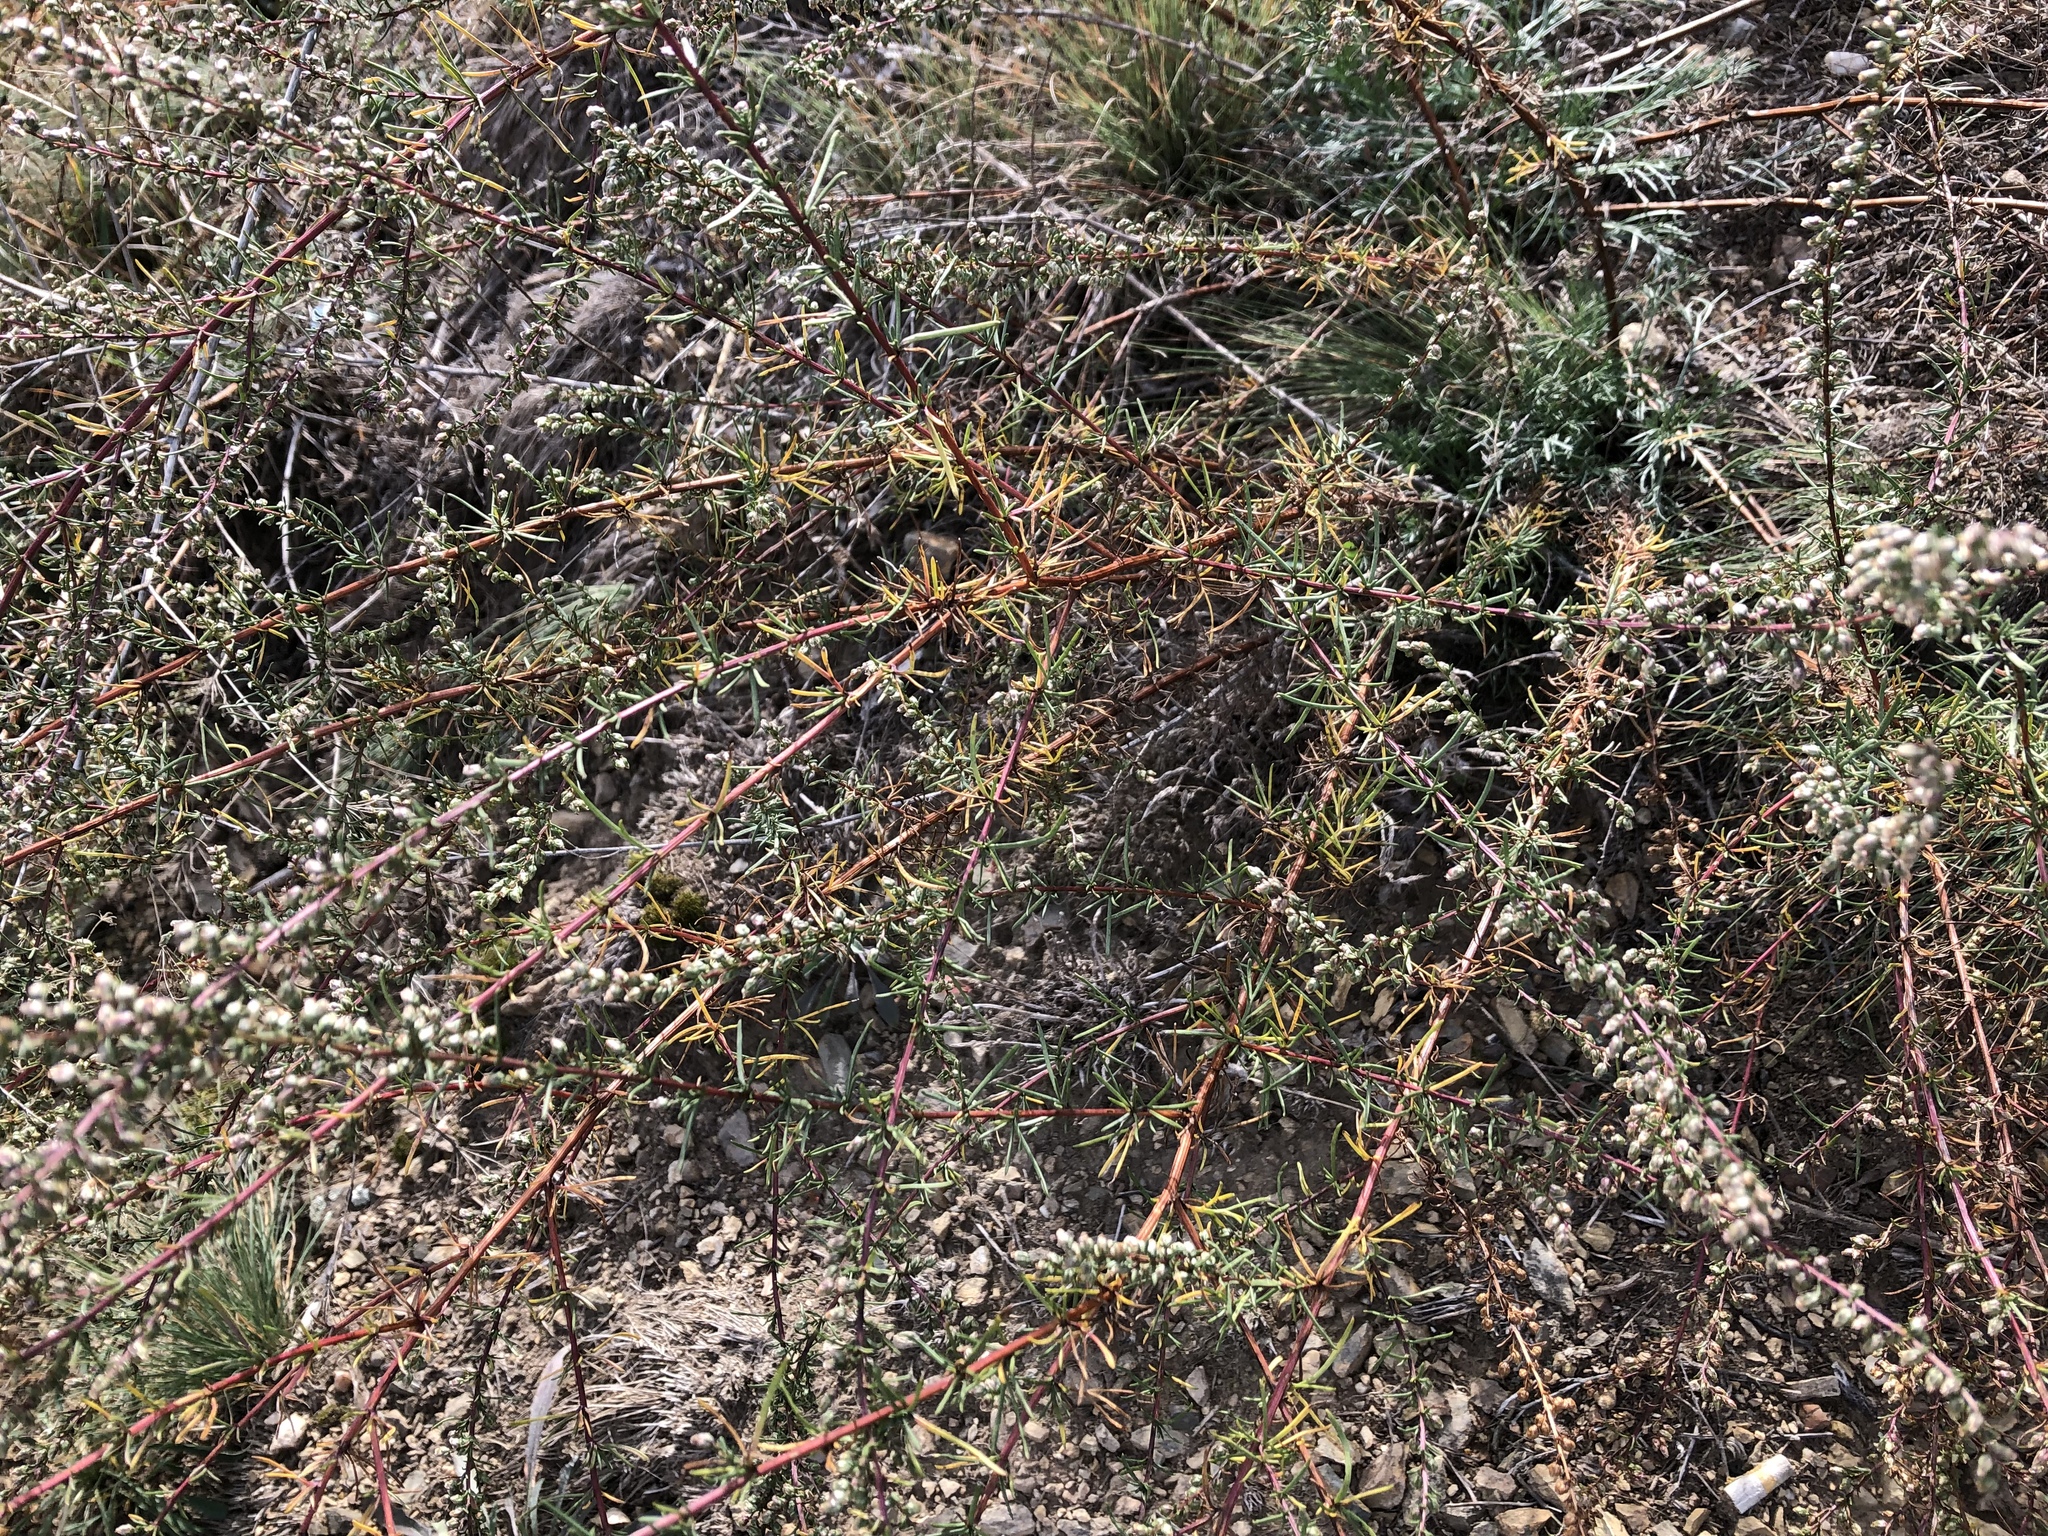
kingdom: Plantae
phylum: Tracheophyta
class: Magnoliopsida
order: Asterales
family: Asteraceae
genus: Artemisia
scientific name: Artemisia campestris
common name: Field wormwood
